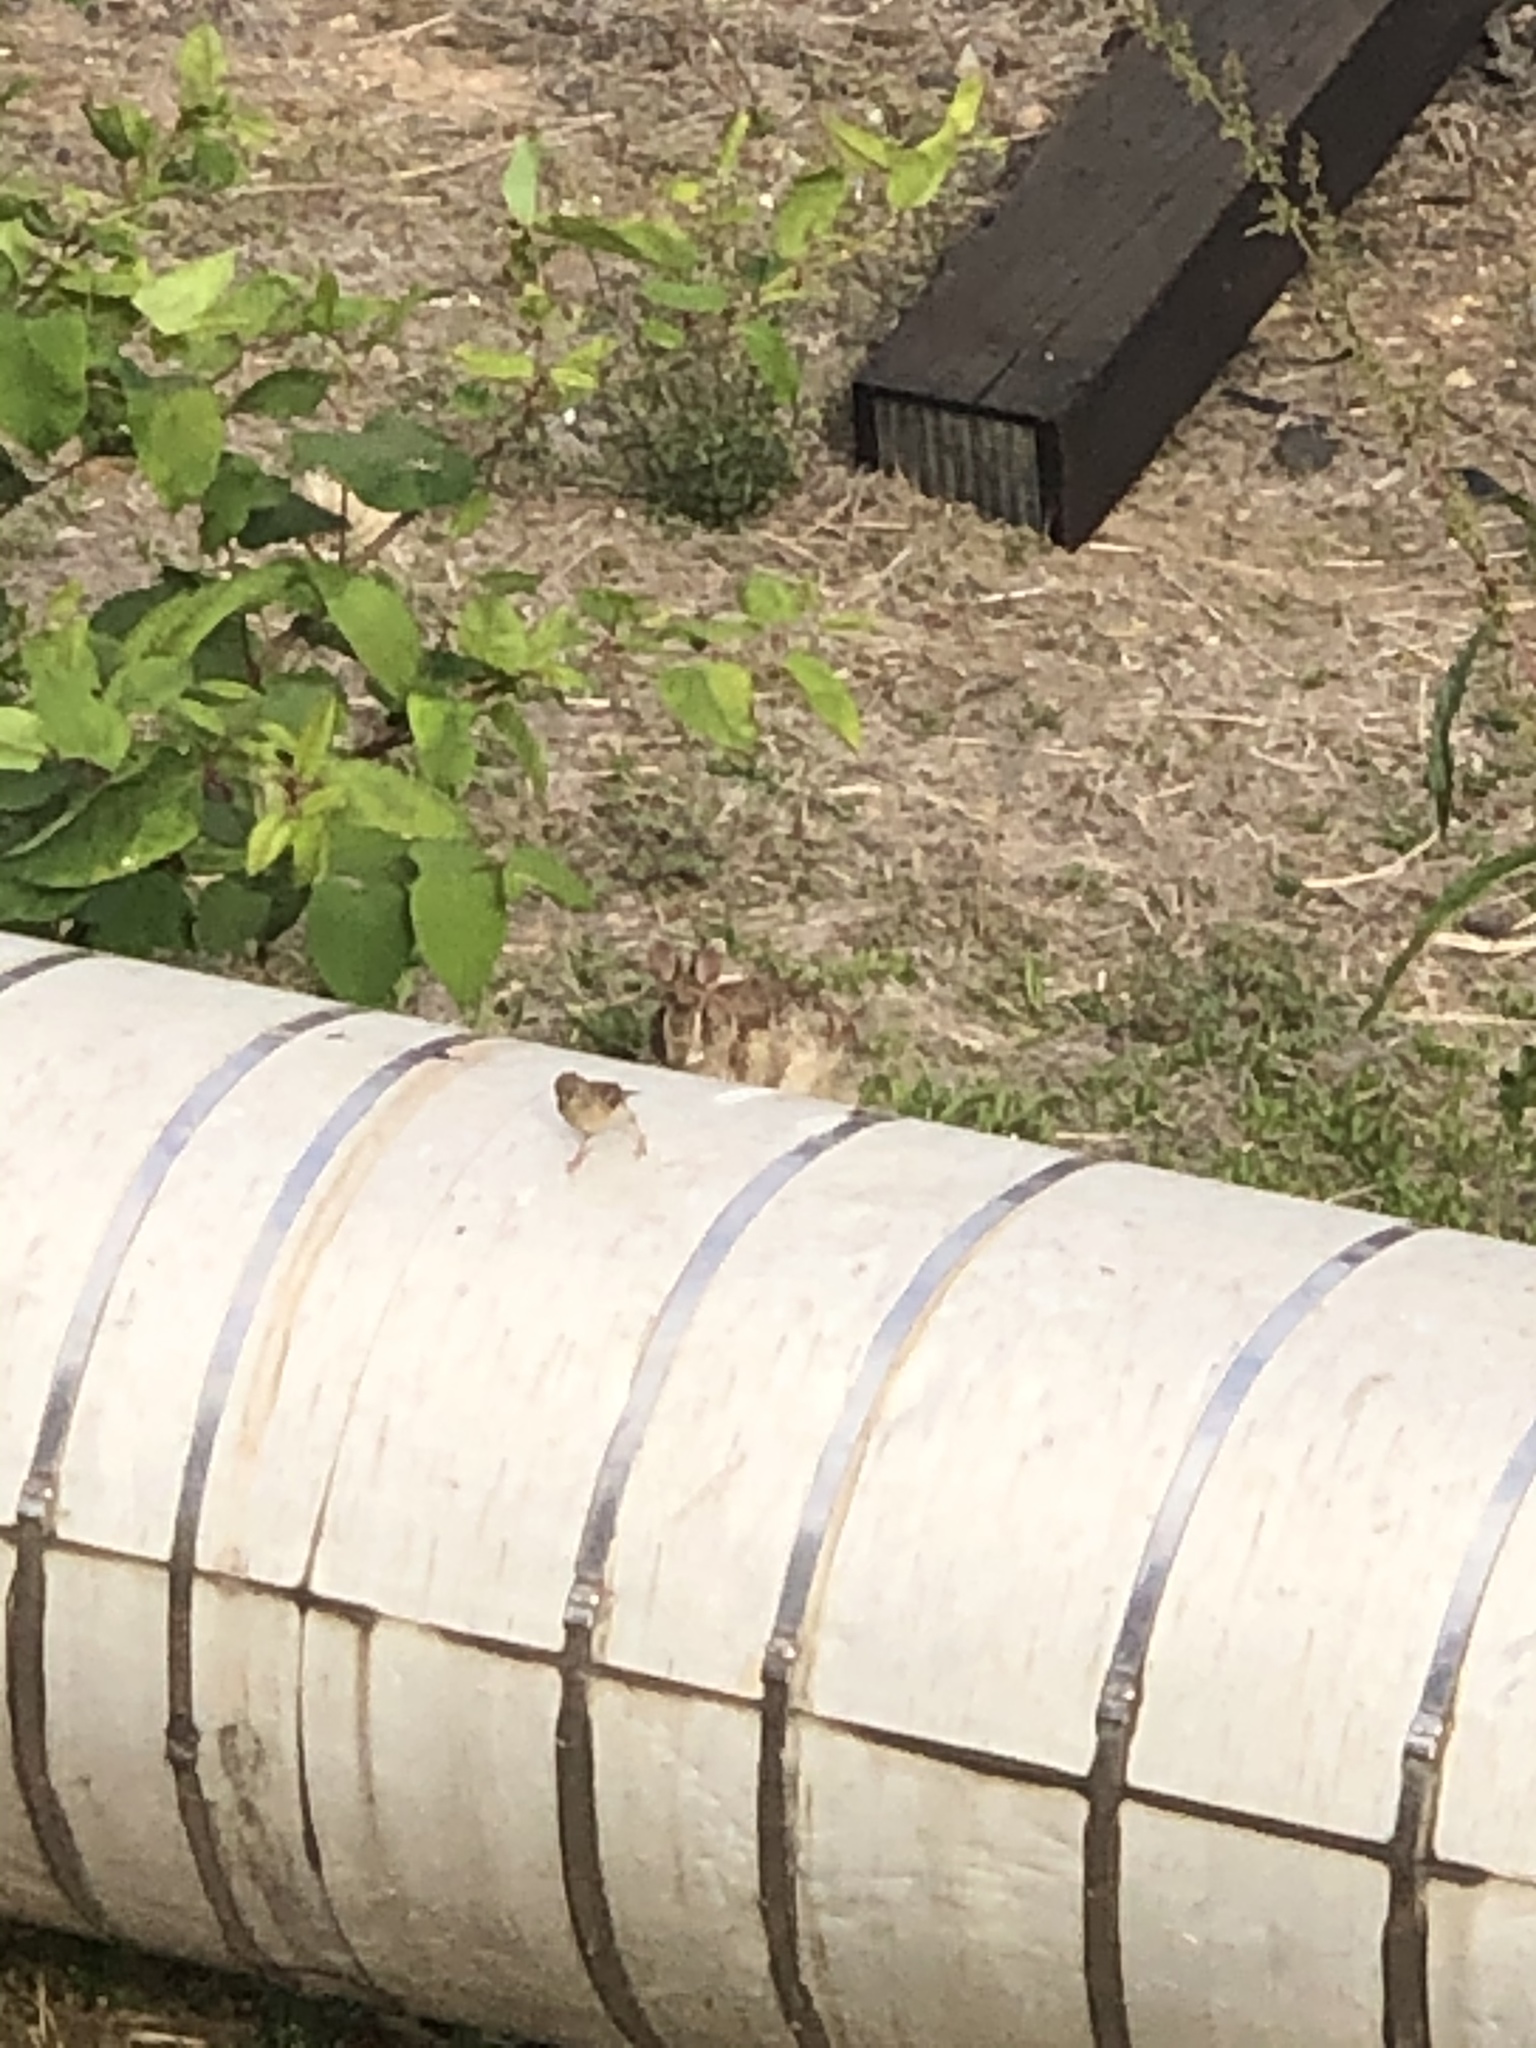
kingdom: Animalia
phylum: Chordata
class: Mammalia
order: Lagomorpha
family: Leporidae
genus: Sylvilagus
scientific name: Sylvilagus floridanus
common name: Eastern cottontail
